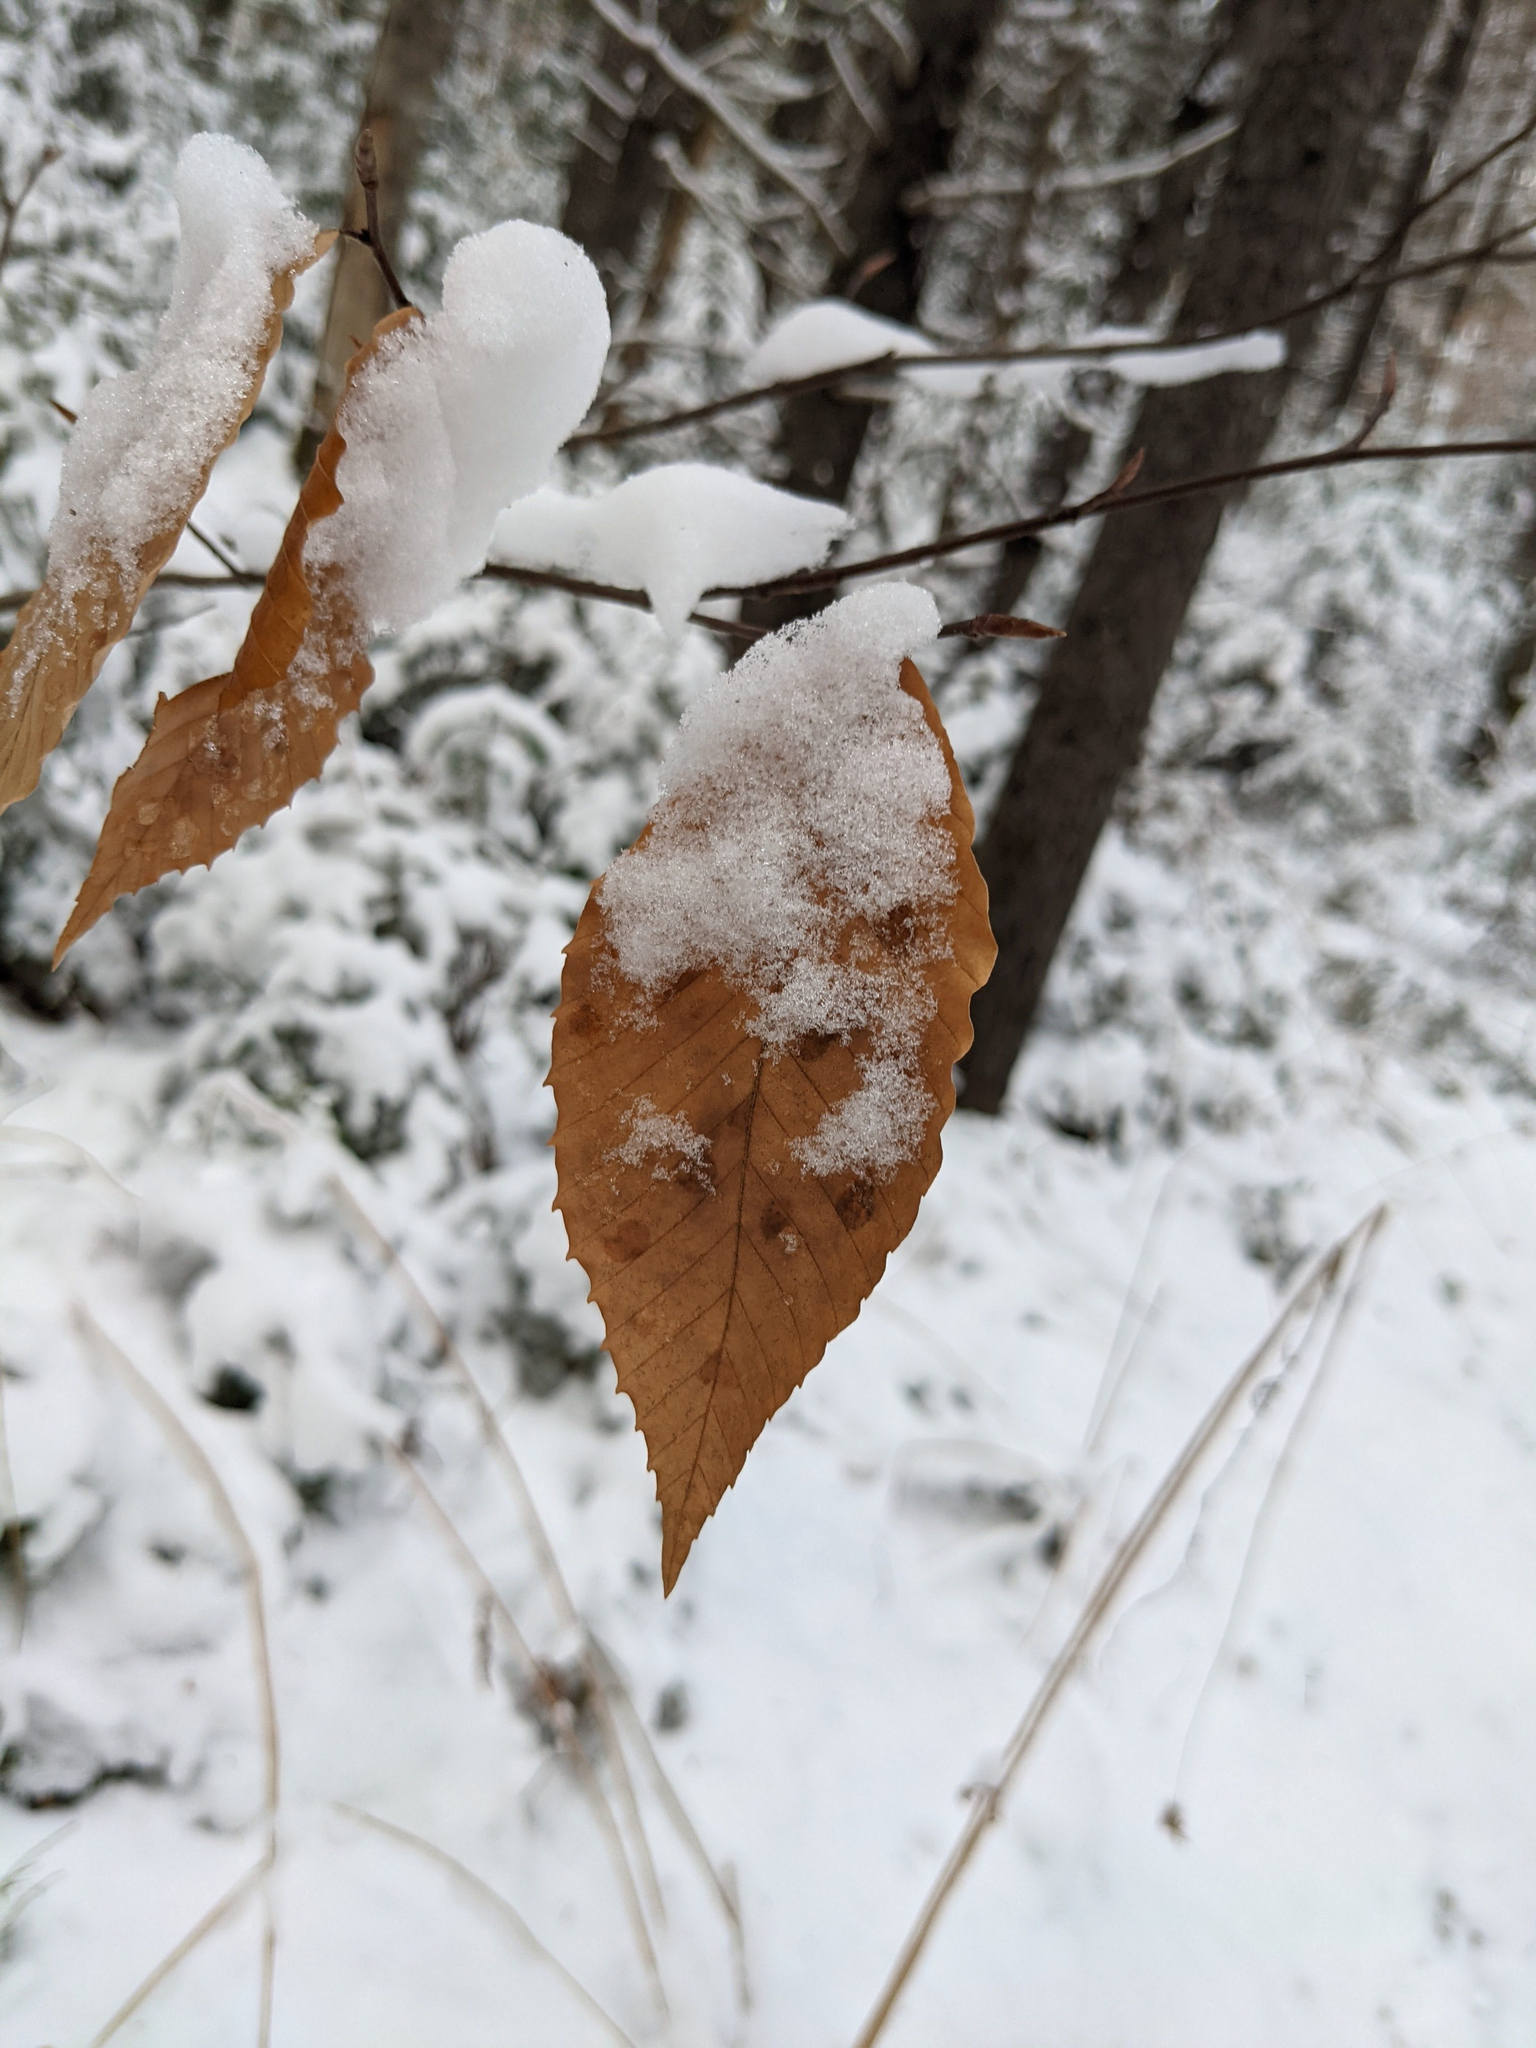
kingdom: Plantae
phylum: Tracheophyta
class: Magnoliopsida
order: Fagales
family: Fagaceae
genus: Fagus
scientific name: Fagus grandifolia
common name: American beech
